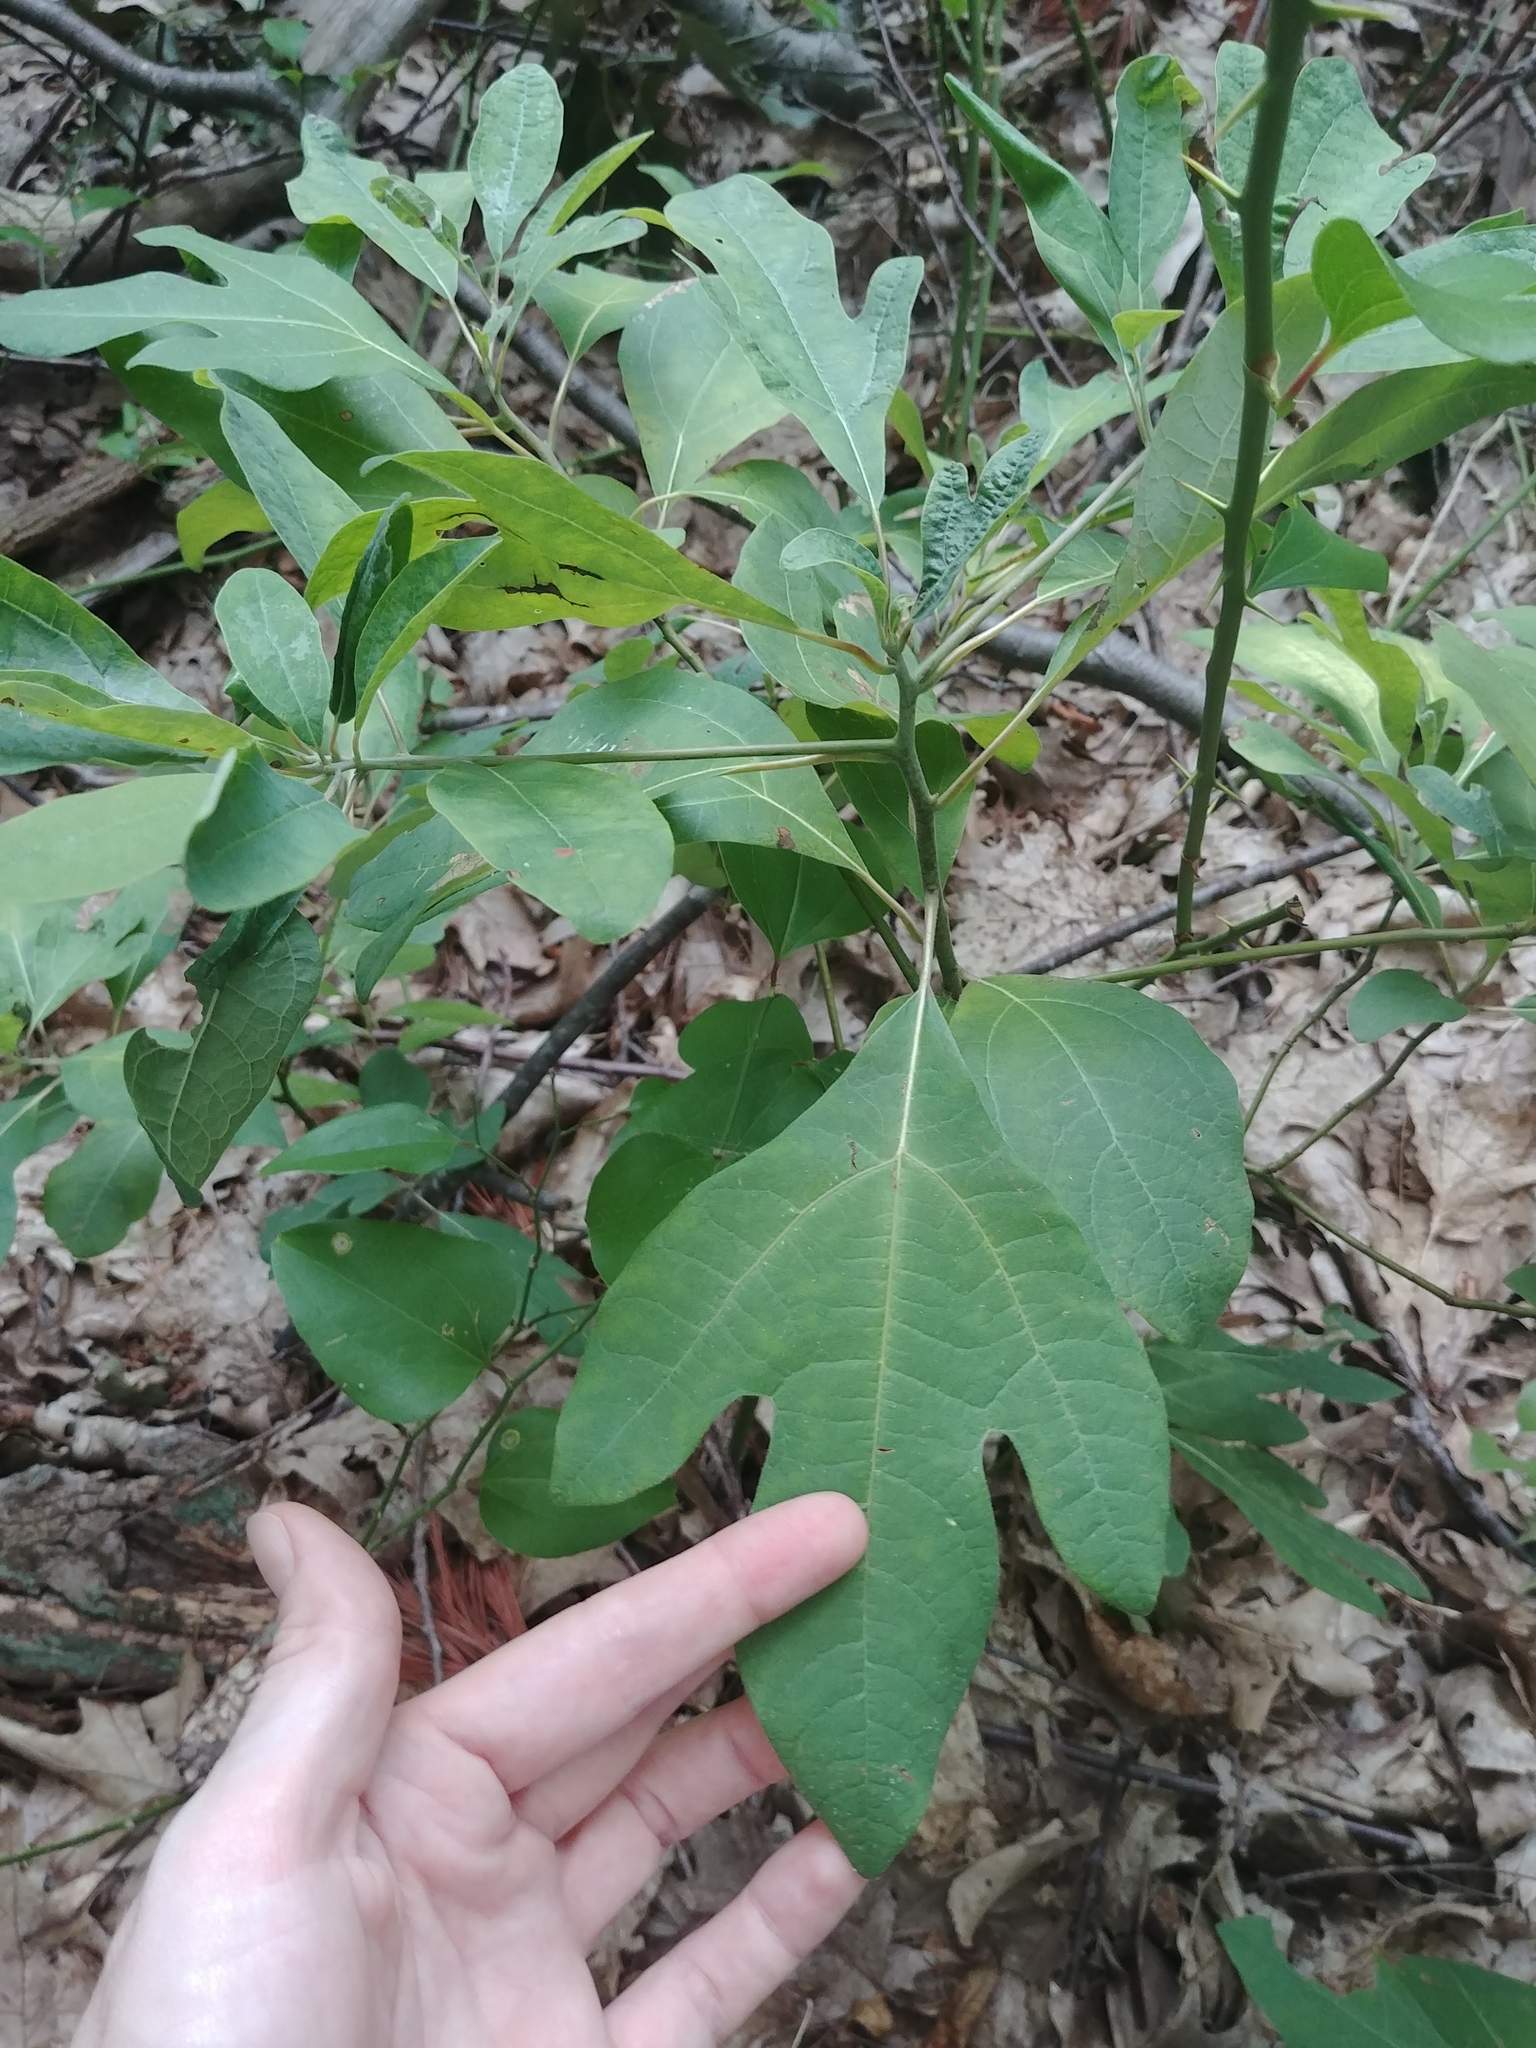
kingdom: Plantae
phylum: Tracheophyta
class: Magnoliopsida
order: Laurales
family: Lauraceae
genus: Sassafras
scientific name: Sassafras albidum
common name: Sassafras
